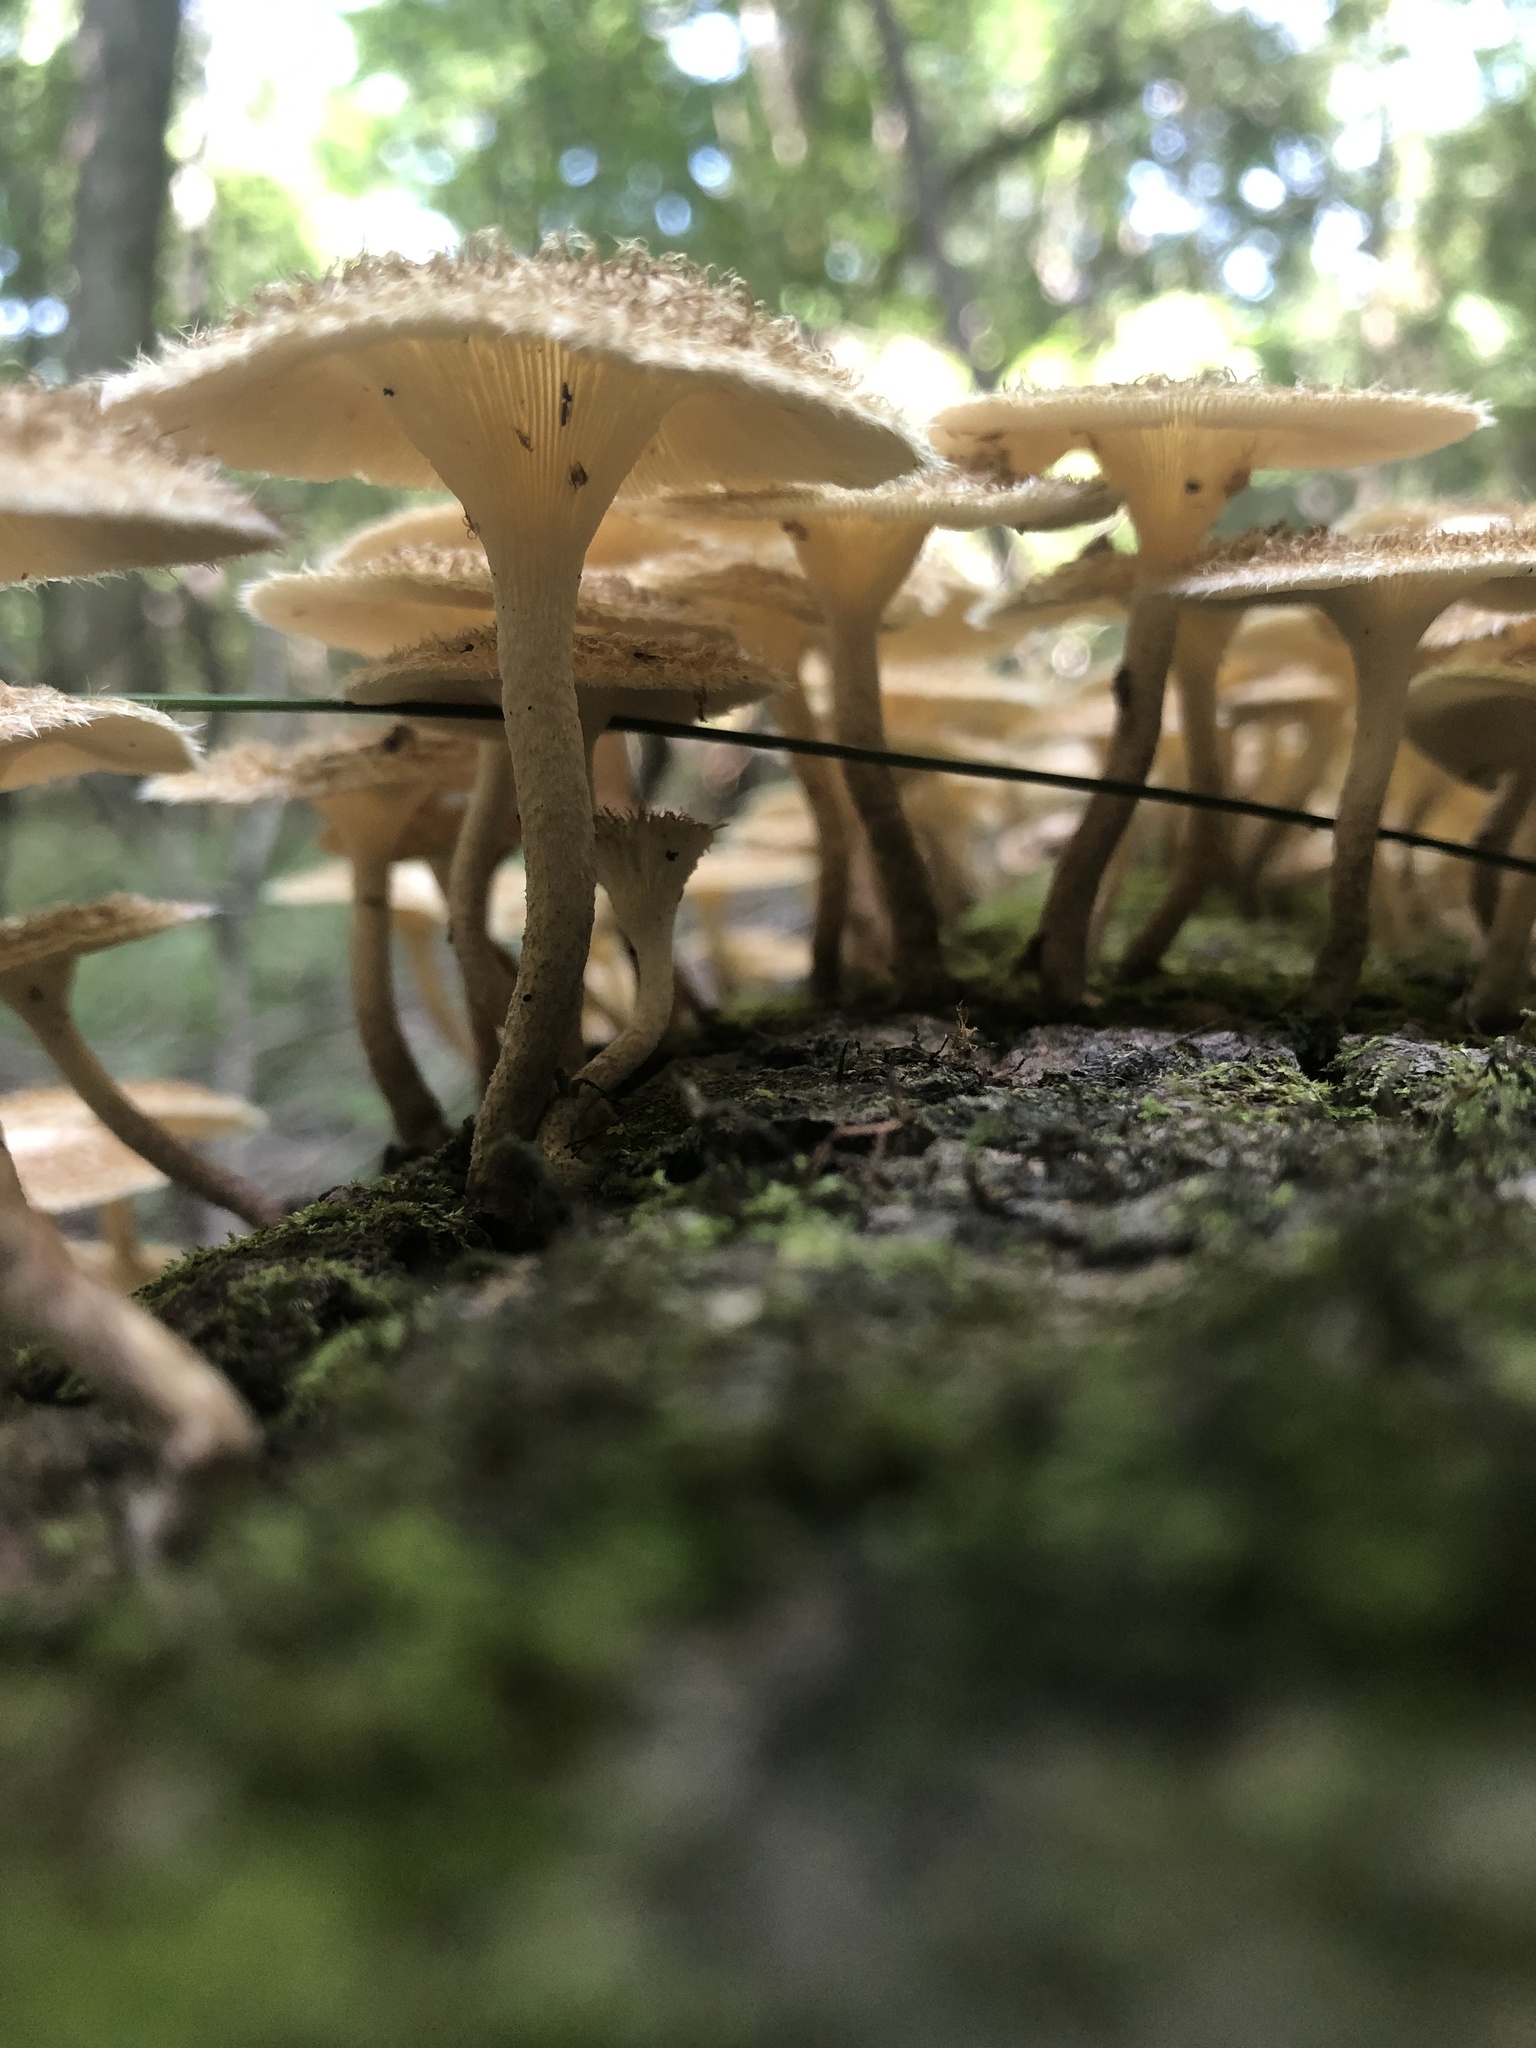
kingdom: Fungi
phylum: Basidiomycota
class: Agaricomycetes
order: Polyporales
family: Polyporaceae
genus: Lentinus
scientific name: Lentinus crinitus
